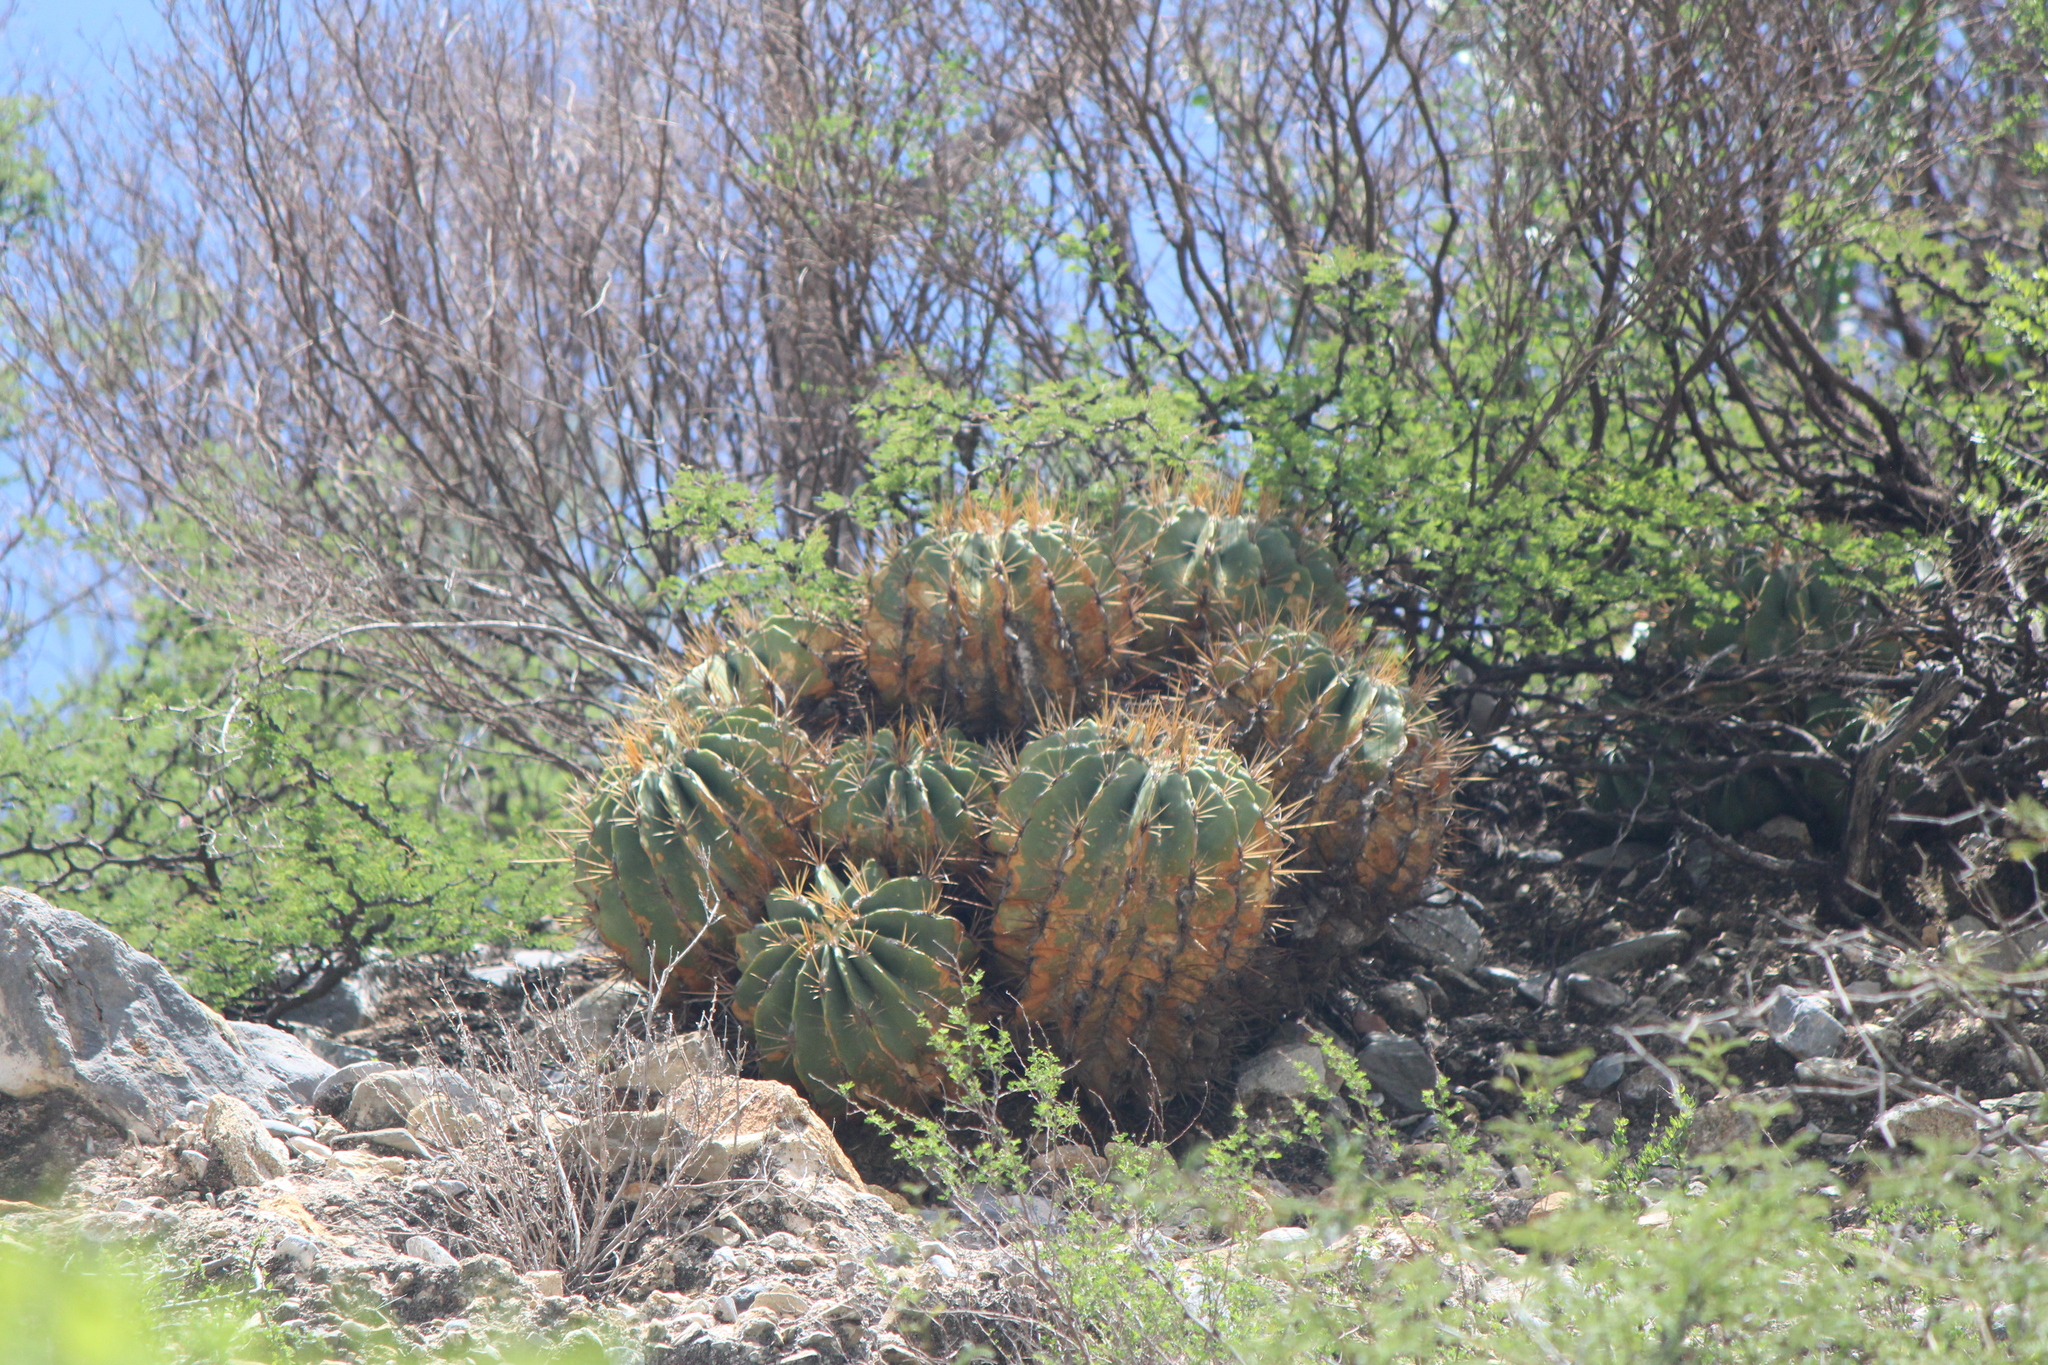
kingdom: Plantae
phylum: Tracheophyta
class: Magnoliopsida
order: Caryophyllales
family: Cactaceae
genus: Parrycactus
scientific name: Parrycactus echidne
